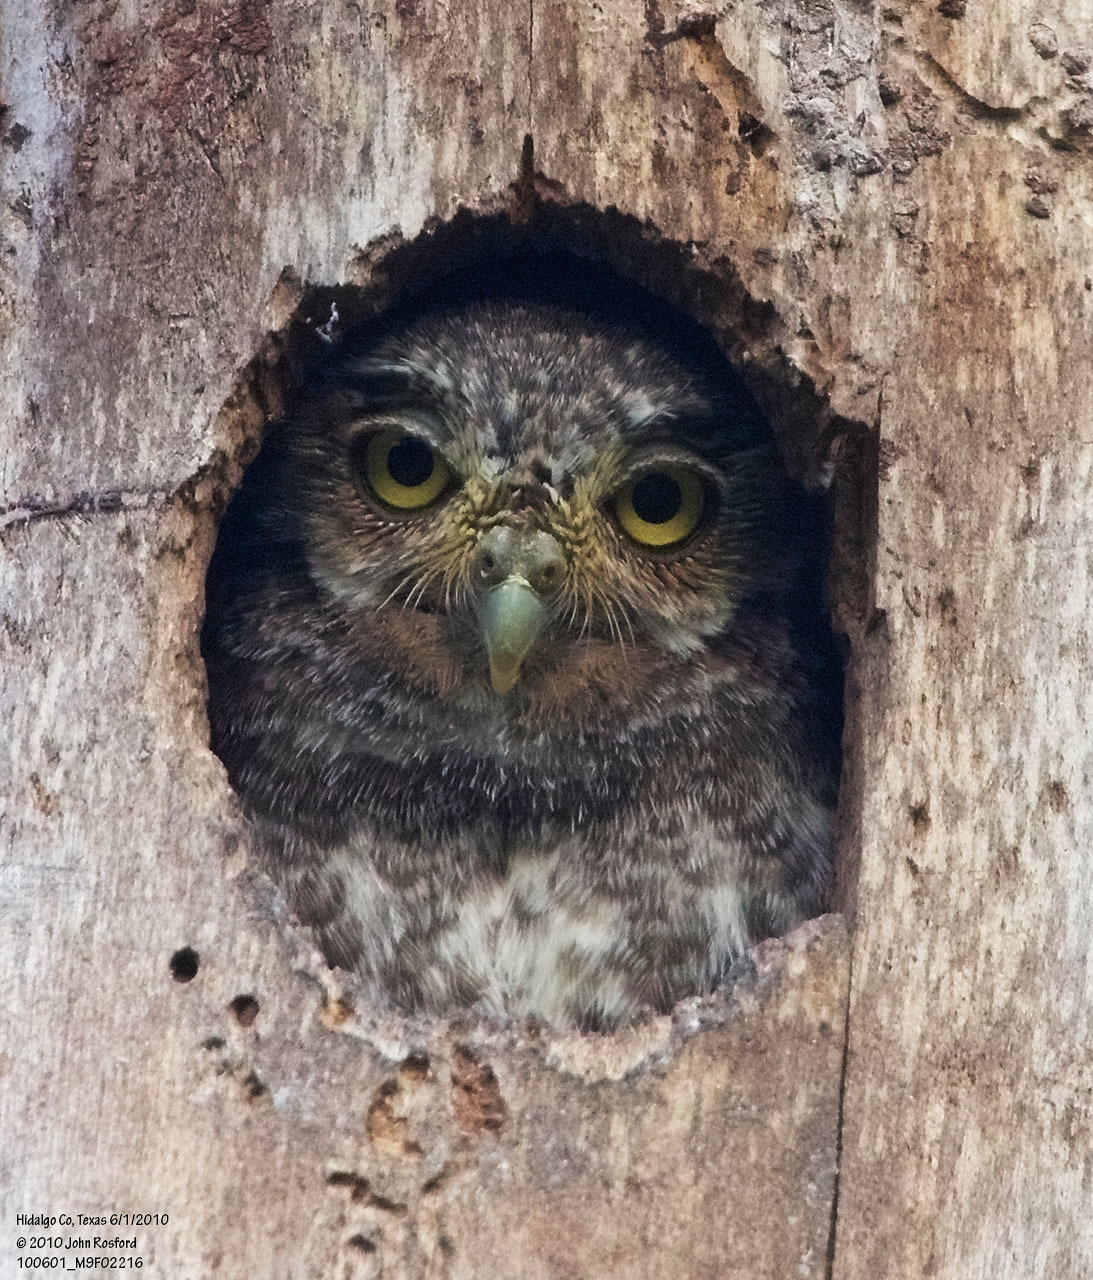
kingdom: Animalia
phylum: Chordata
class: Aves
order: Strigiformes
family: Strigidae
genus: Micrathene
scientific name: Micrathene whitneyi
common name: Elf owl
